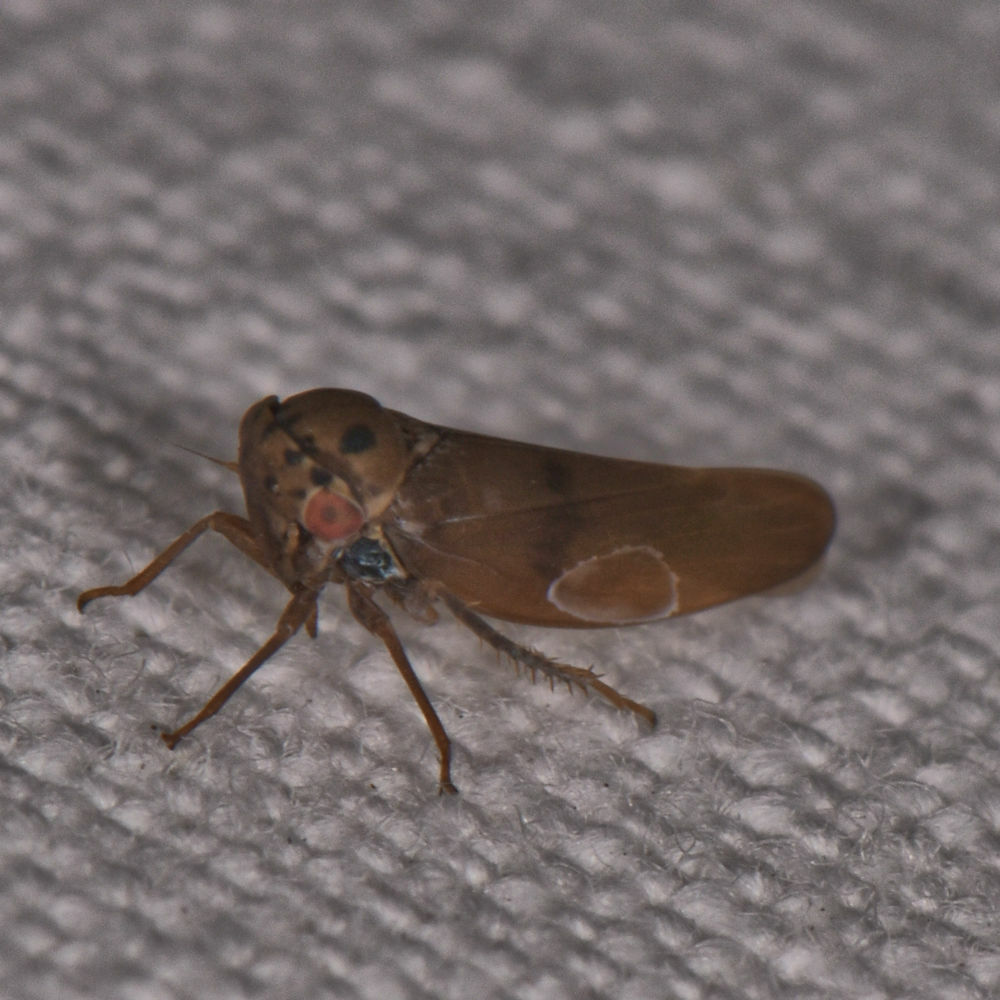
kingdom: Animalia
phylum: Arthropoda
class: Insecta
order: Hemiptera
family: Cicadellidae
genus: Agalliopsis
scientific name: Agalliopsis peneoculata
